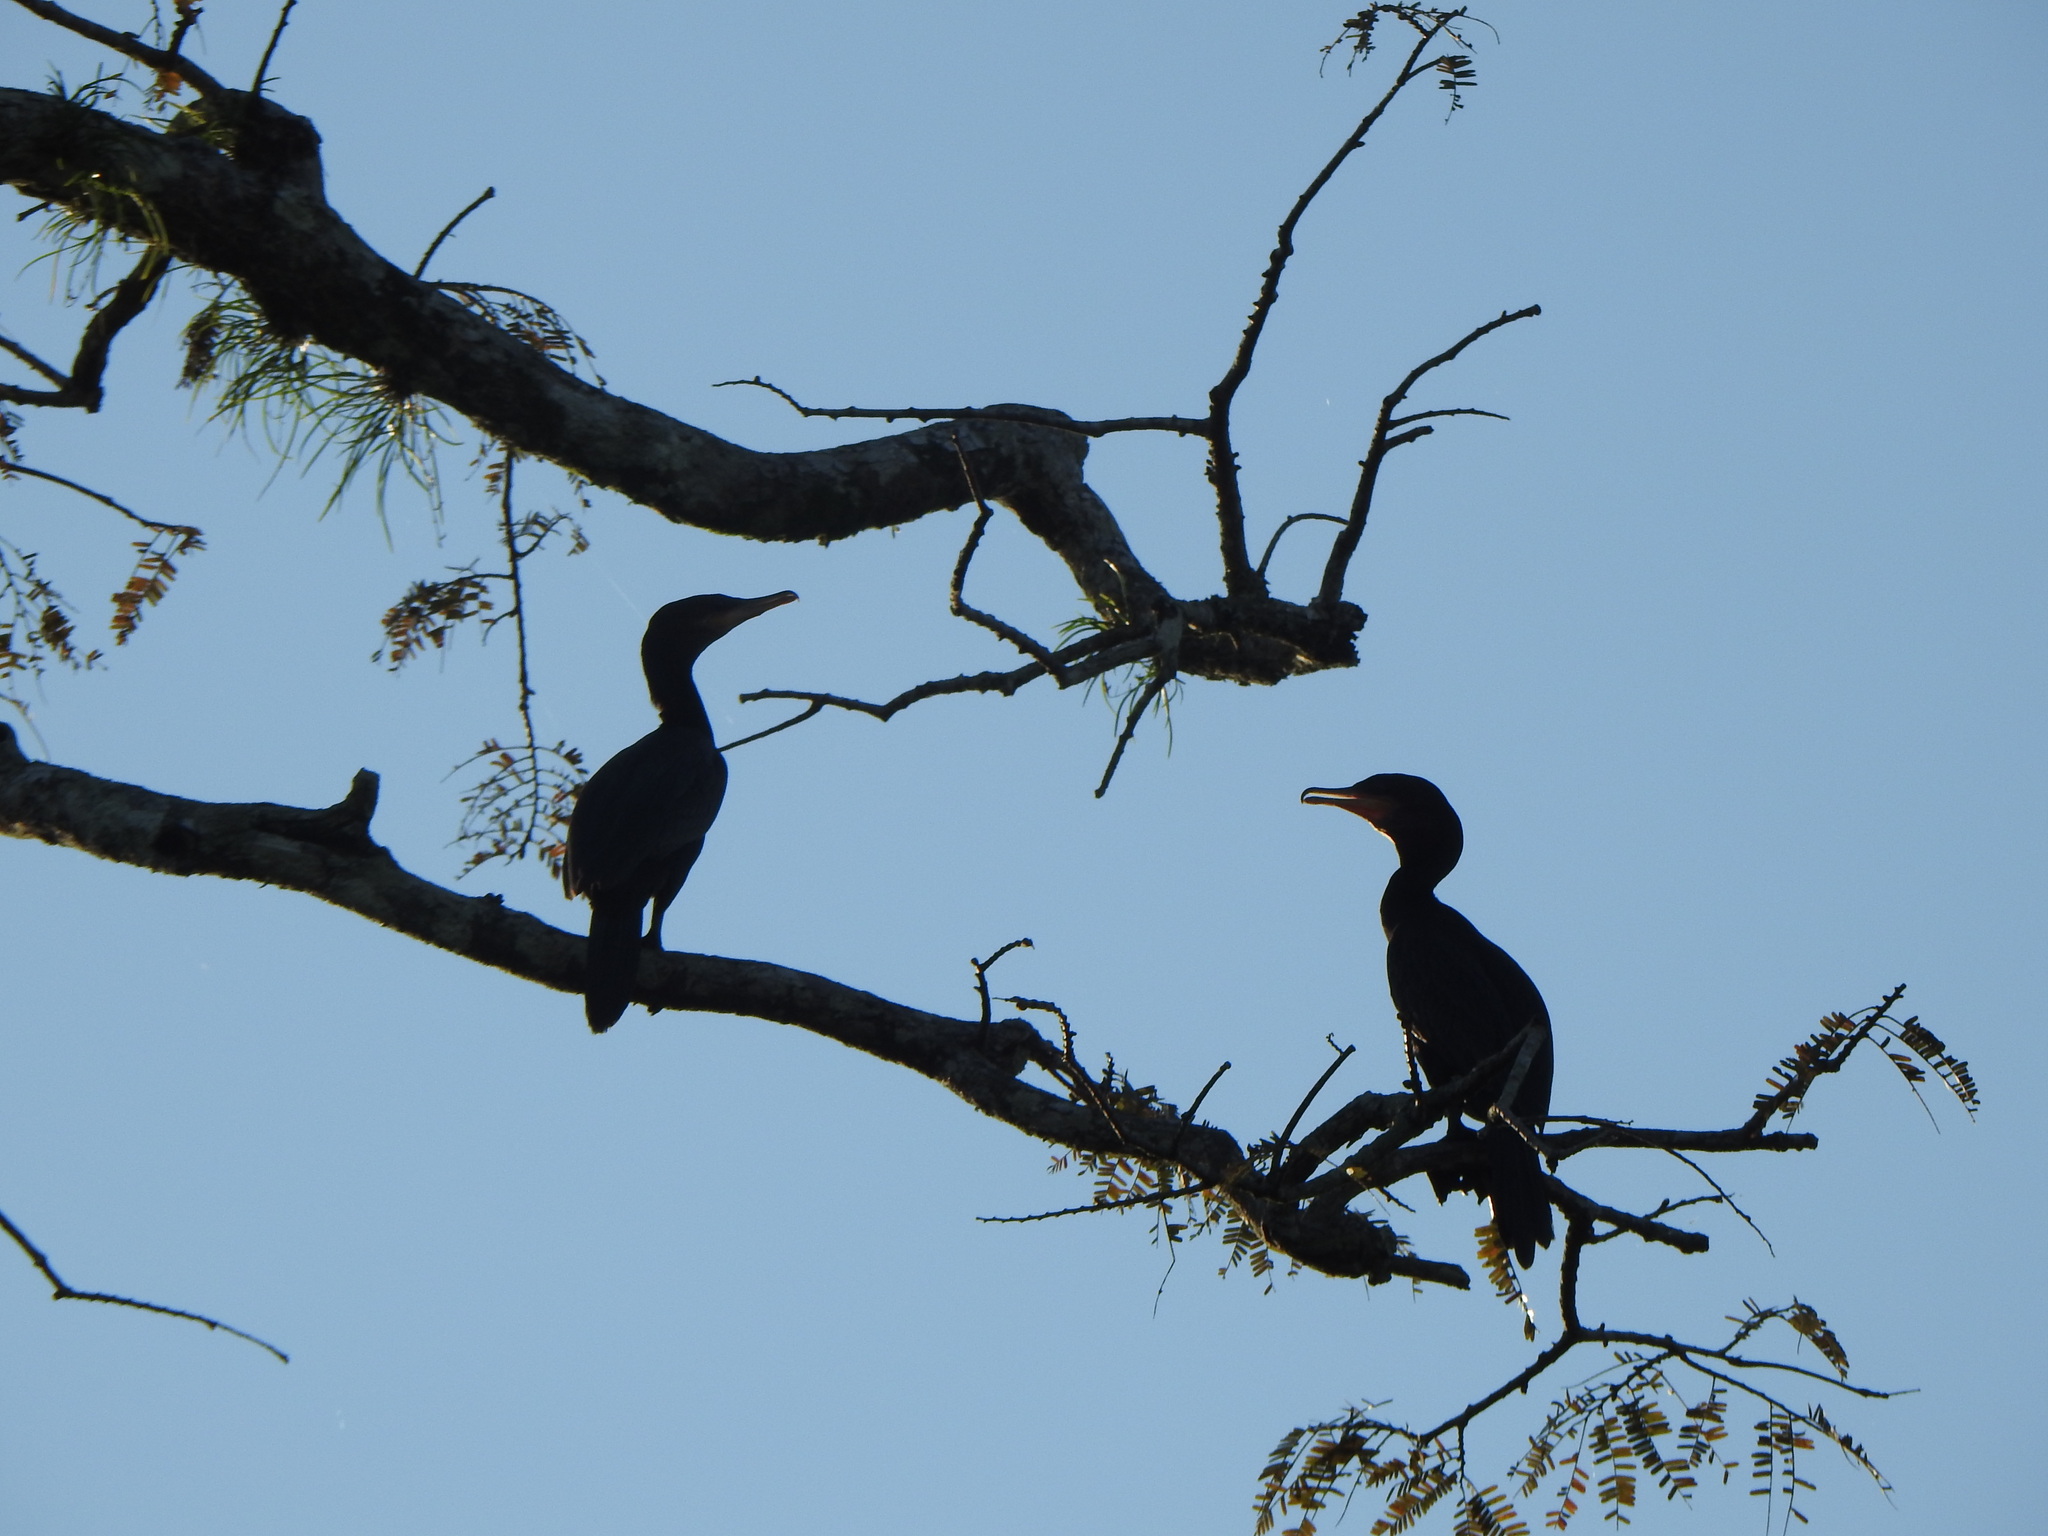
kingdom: Animalia
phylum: Chordata
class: Aves
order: Suliformes
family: Phalacrocoracidae
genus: Phalacrocorax
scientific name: Phalacrocorax brasilianus
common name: Neotropic cormorant
